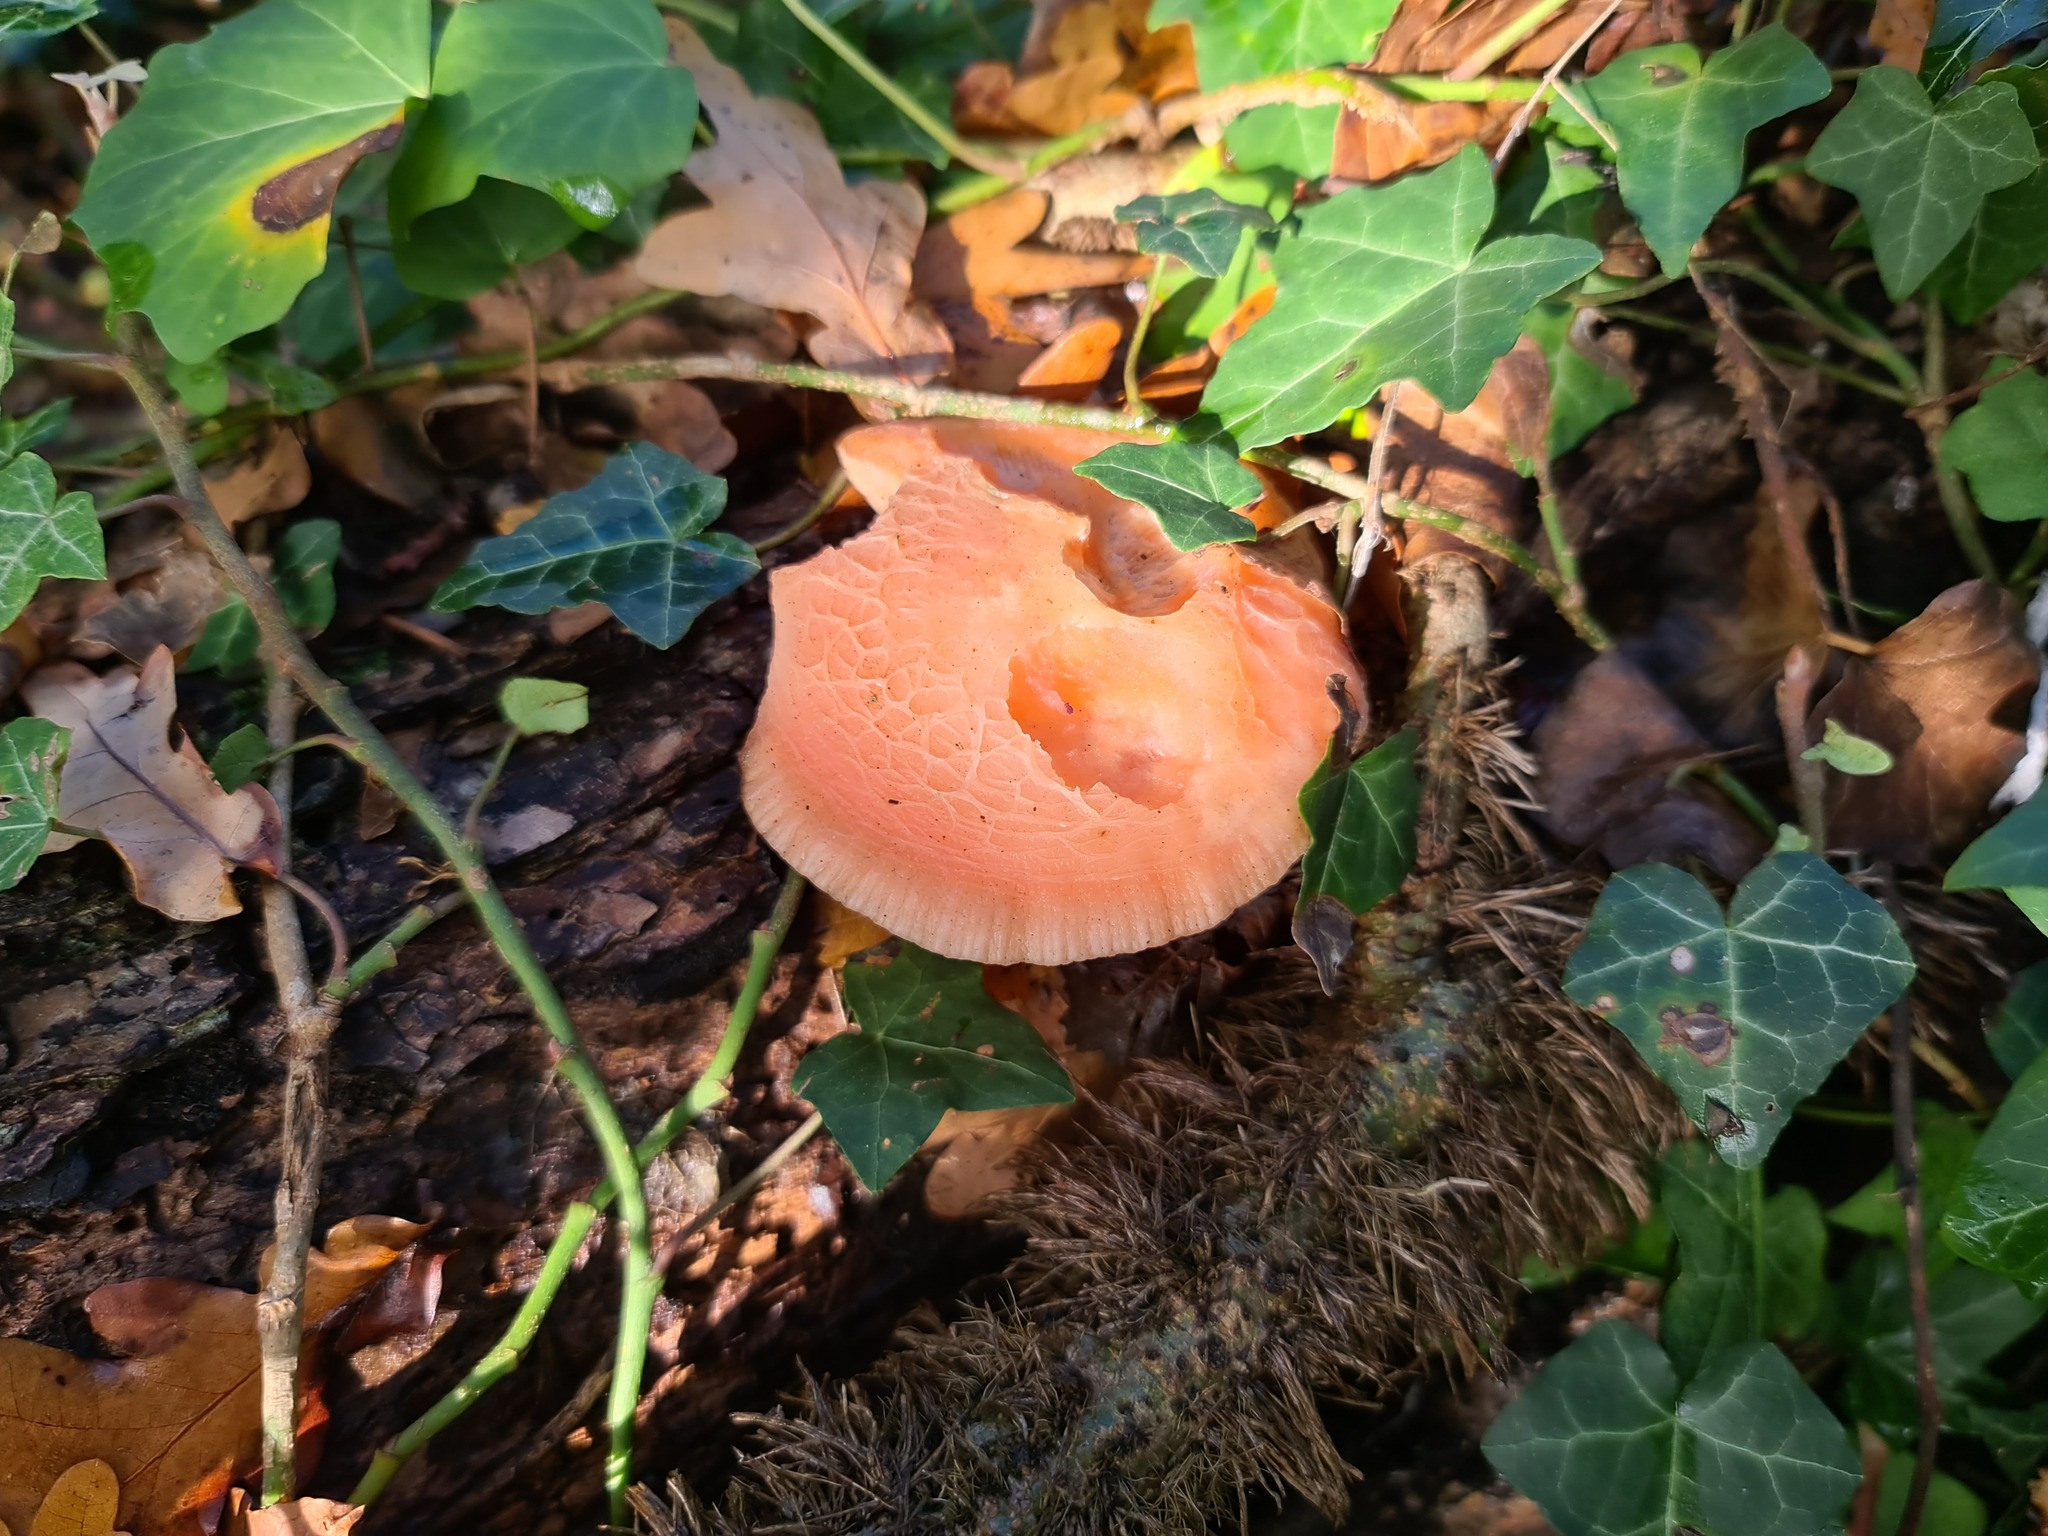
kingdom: Fungi
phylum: Basidiomycota
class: Agaricomycetes
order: Agaricales
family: Physalacriaceae
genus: Rhodotus
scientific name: Rhodotus palmatus
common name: Wrinkled peach
